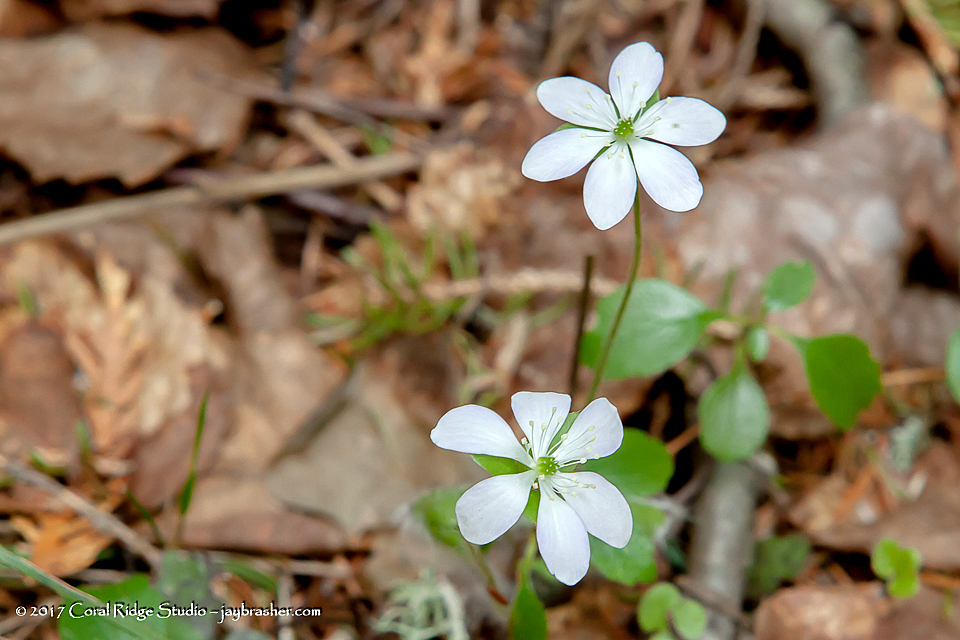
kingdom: Plantae
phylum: Tracheophyta
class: Magnoliopsida
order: Ranunculales
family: Ranunculaceae
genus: Hepatica
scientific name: Hepatica americana
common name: American hepatica
